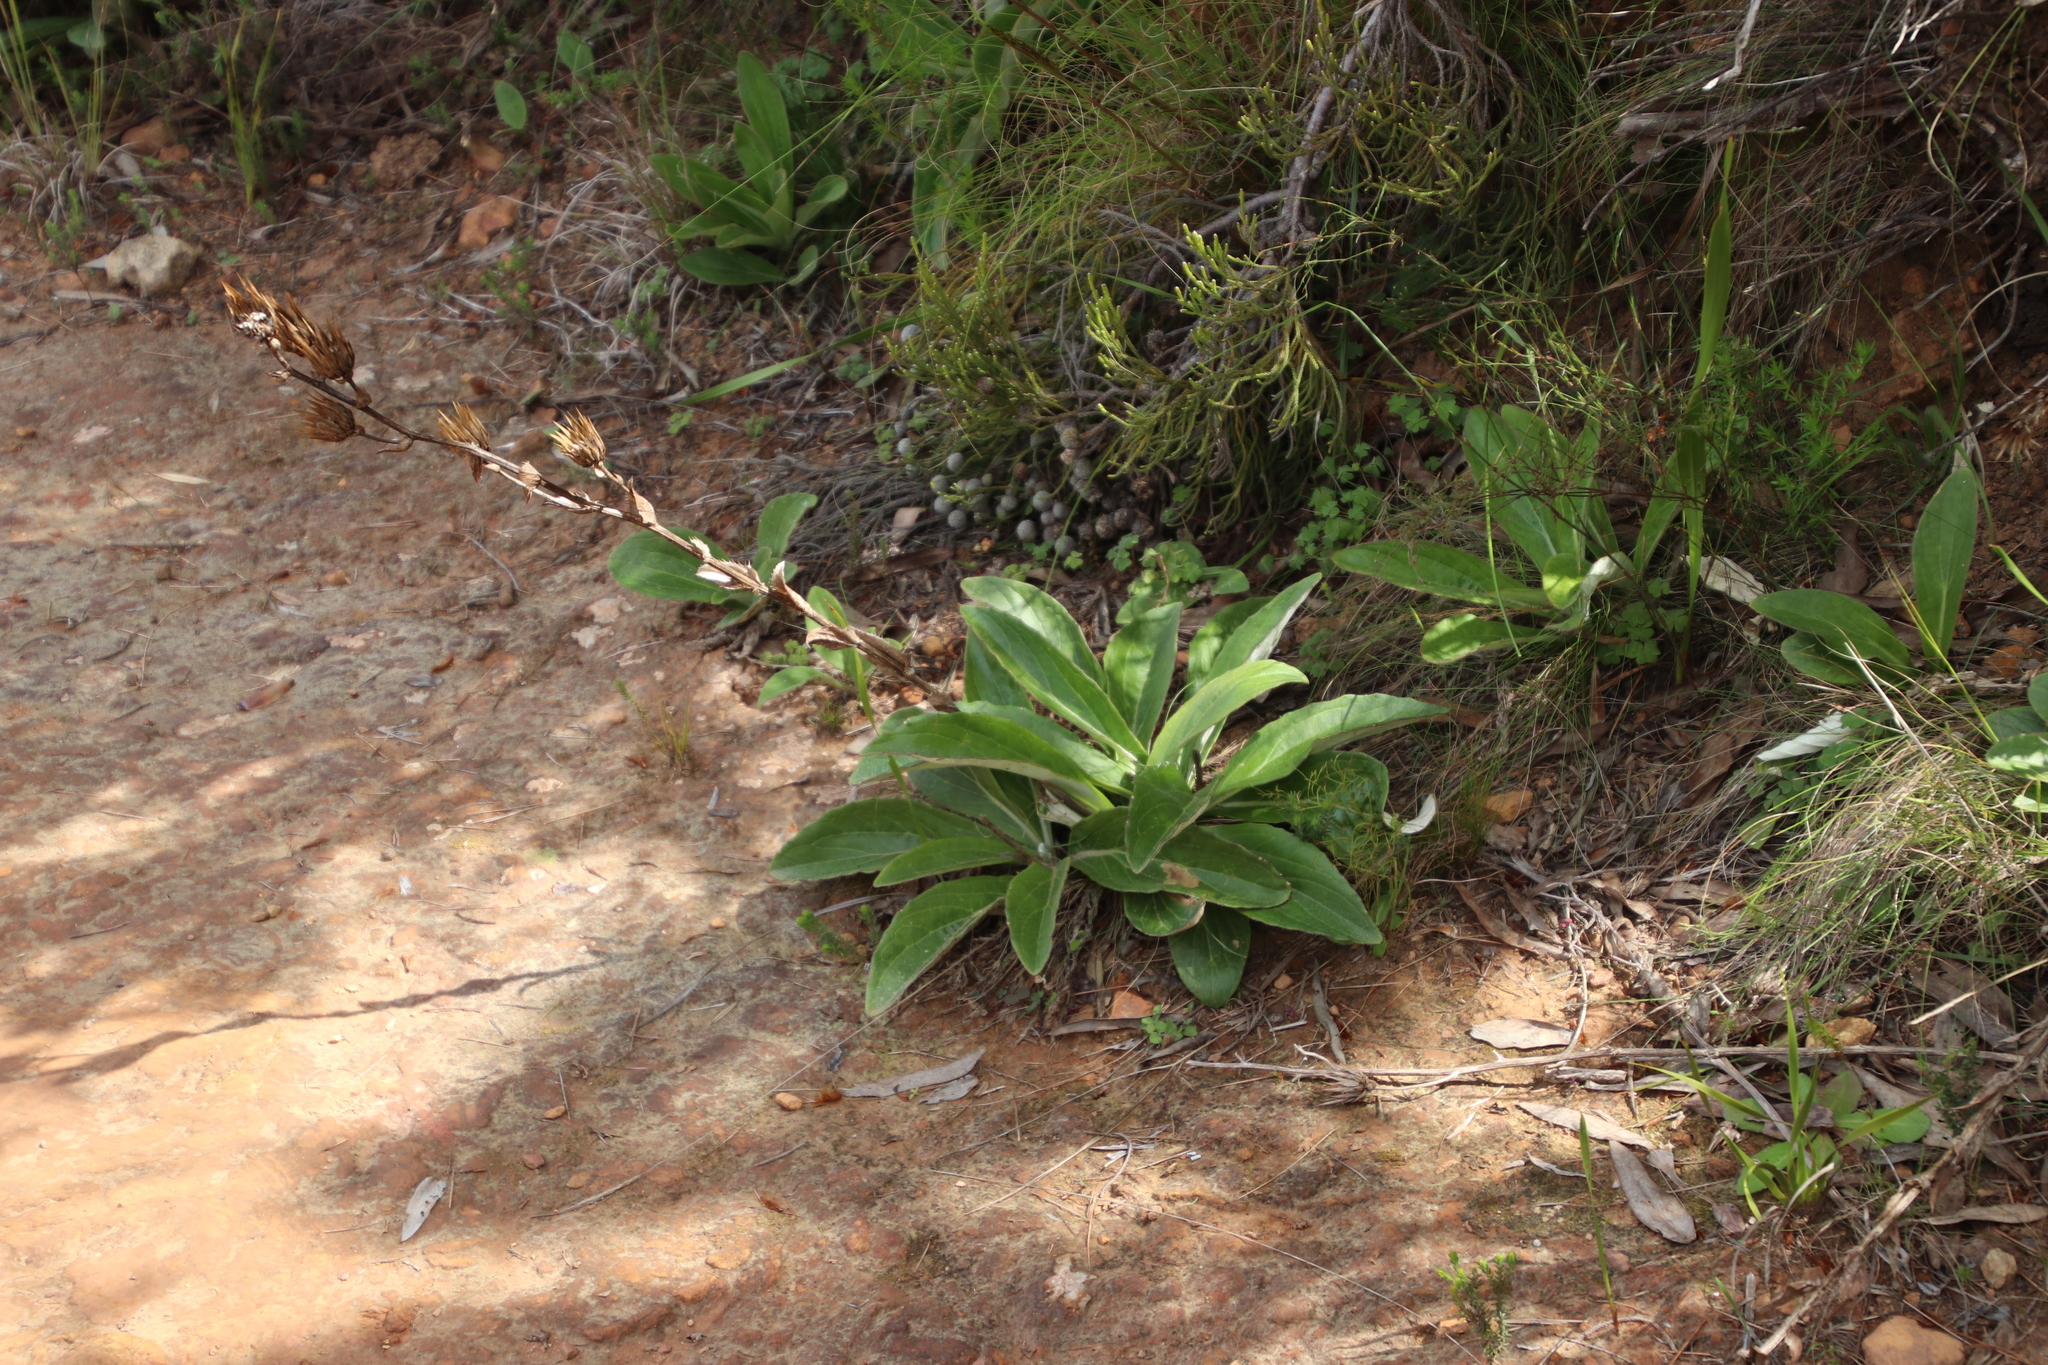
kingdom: Plantae
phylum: Tracheophyta
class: Magnoliopsida
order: Asterales
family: Asteraceae
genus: Berkheya
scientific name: Berkheya herbacea
